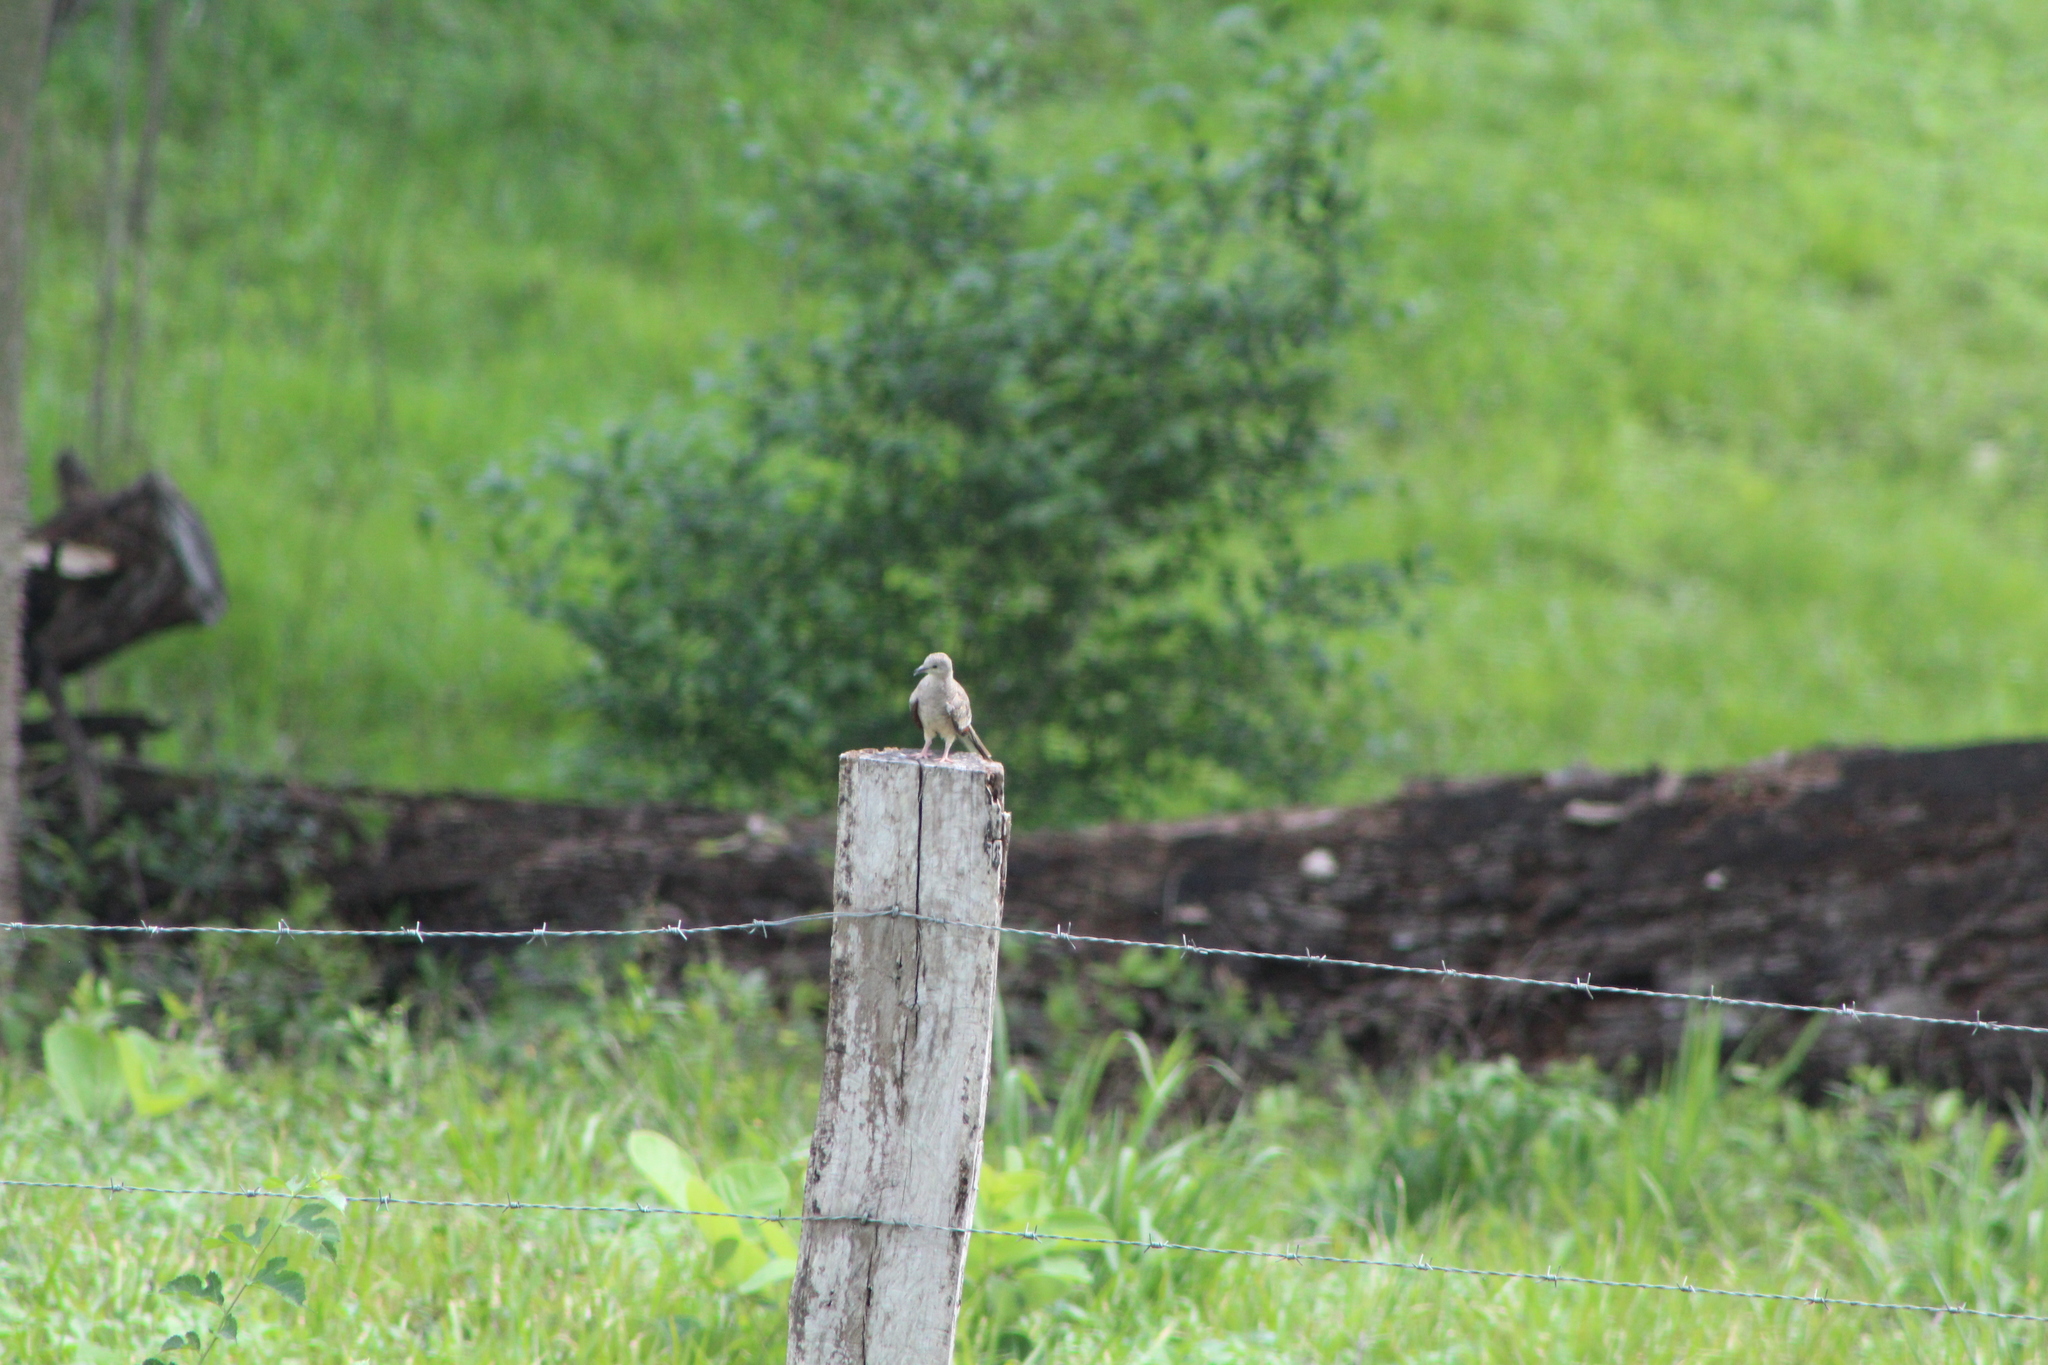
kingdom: Animalia
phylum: Chordata
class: Aves
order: Columbiformes
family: Columbidae
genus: Columbina
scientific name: Columbina inca
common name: Inca dove
